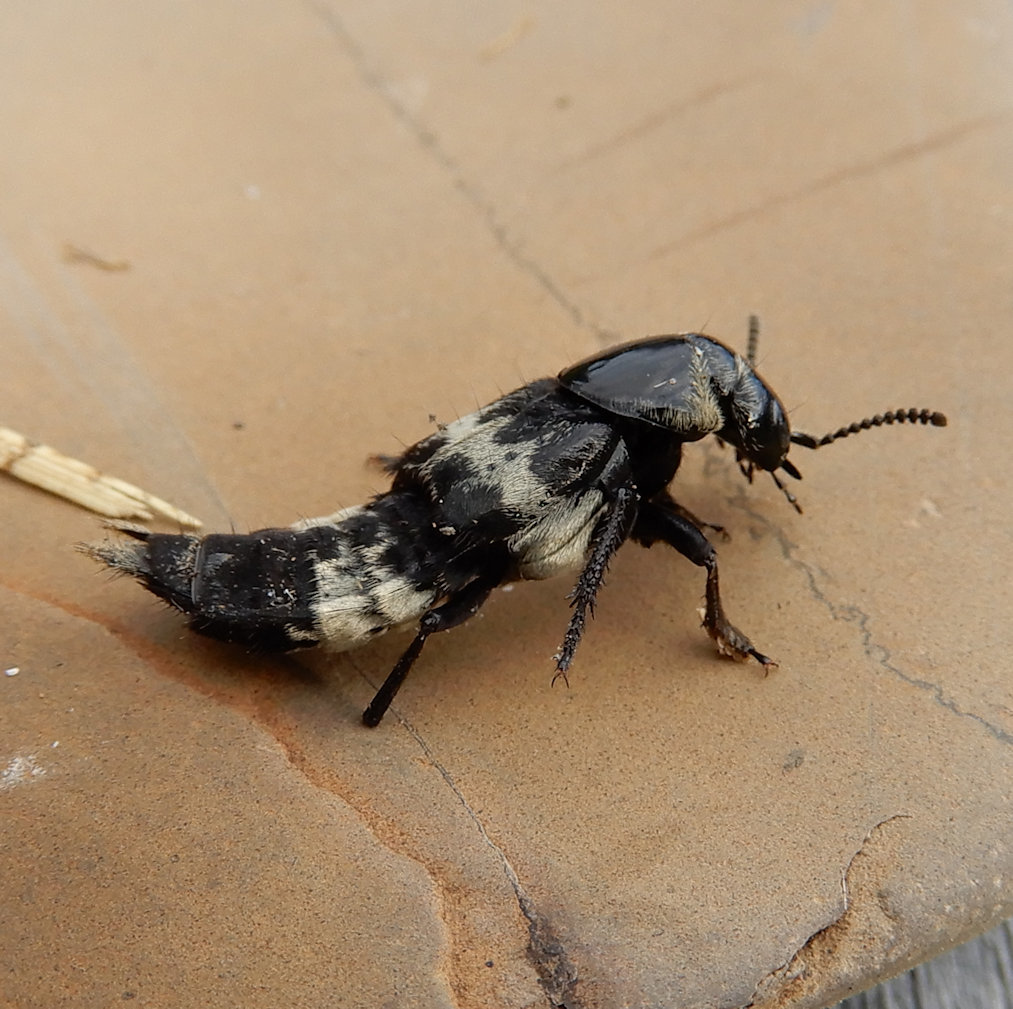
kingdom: Animalia
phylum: Arthropoda
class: Insecta
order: Coleoptera
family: Staphylinidae
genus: Creophilus
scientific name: Creophilus maxillosus
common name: Hairy rove beetle
